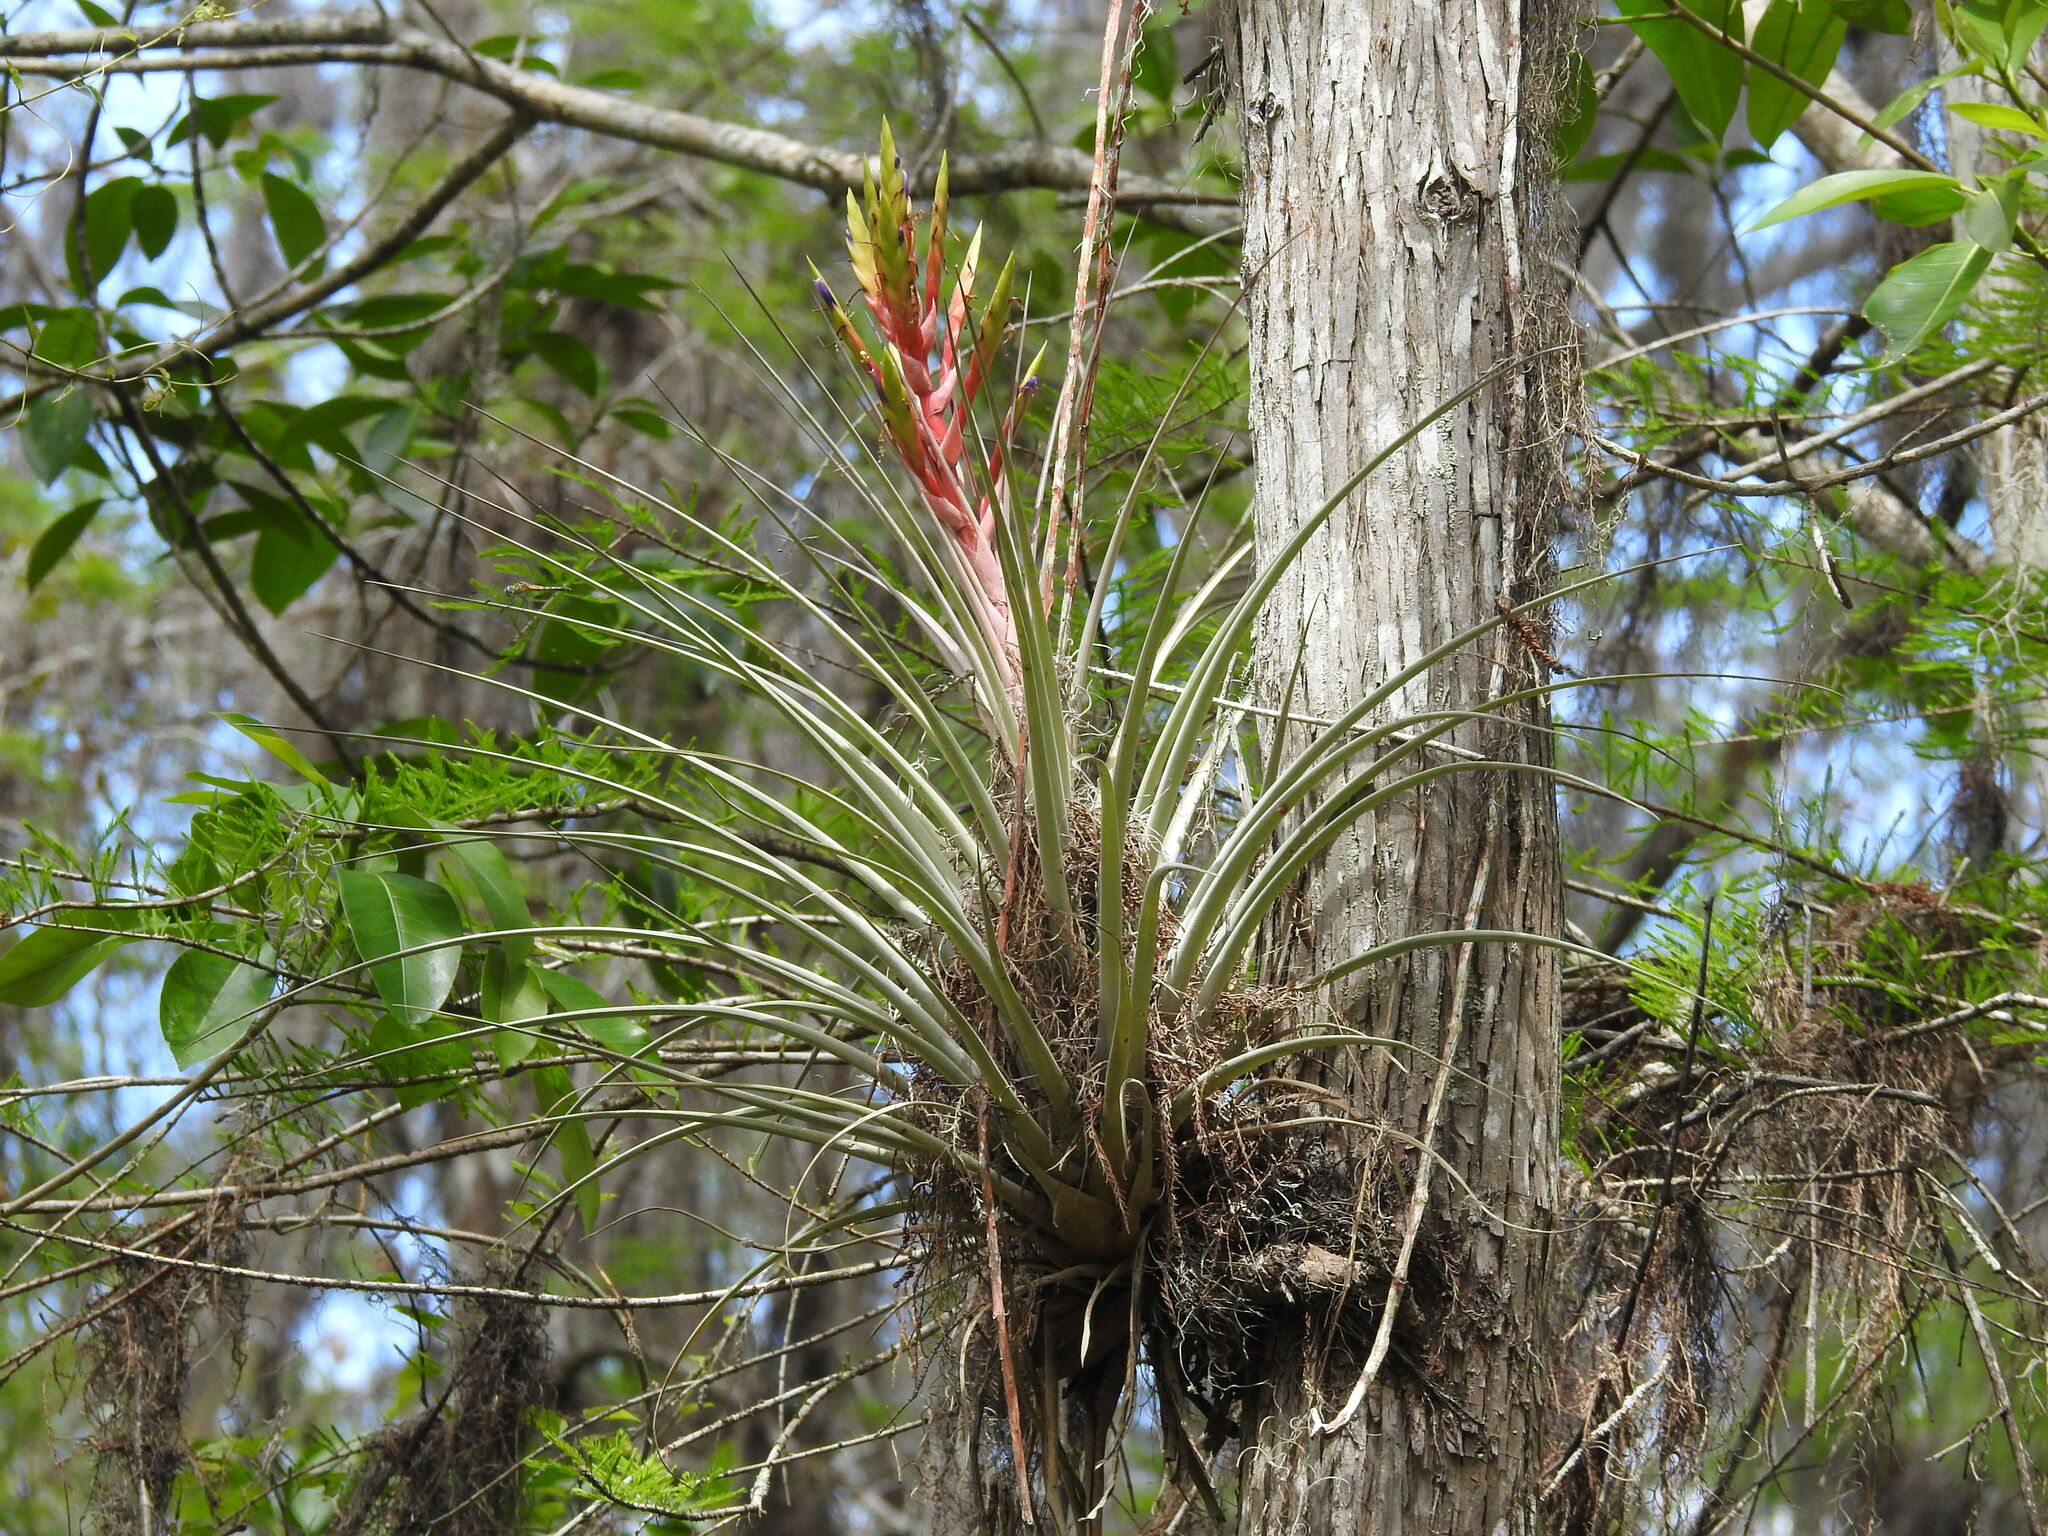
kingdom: Plantae
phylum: Tracheophyta
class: Liliopsida
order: Poales
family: Bromeliaceae
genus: Tillandsia
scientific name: Tillandsia fasciculata
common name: Giant airplant
